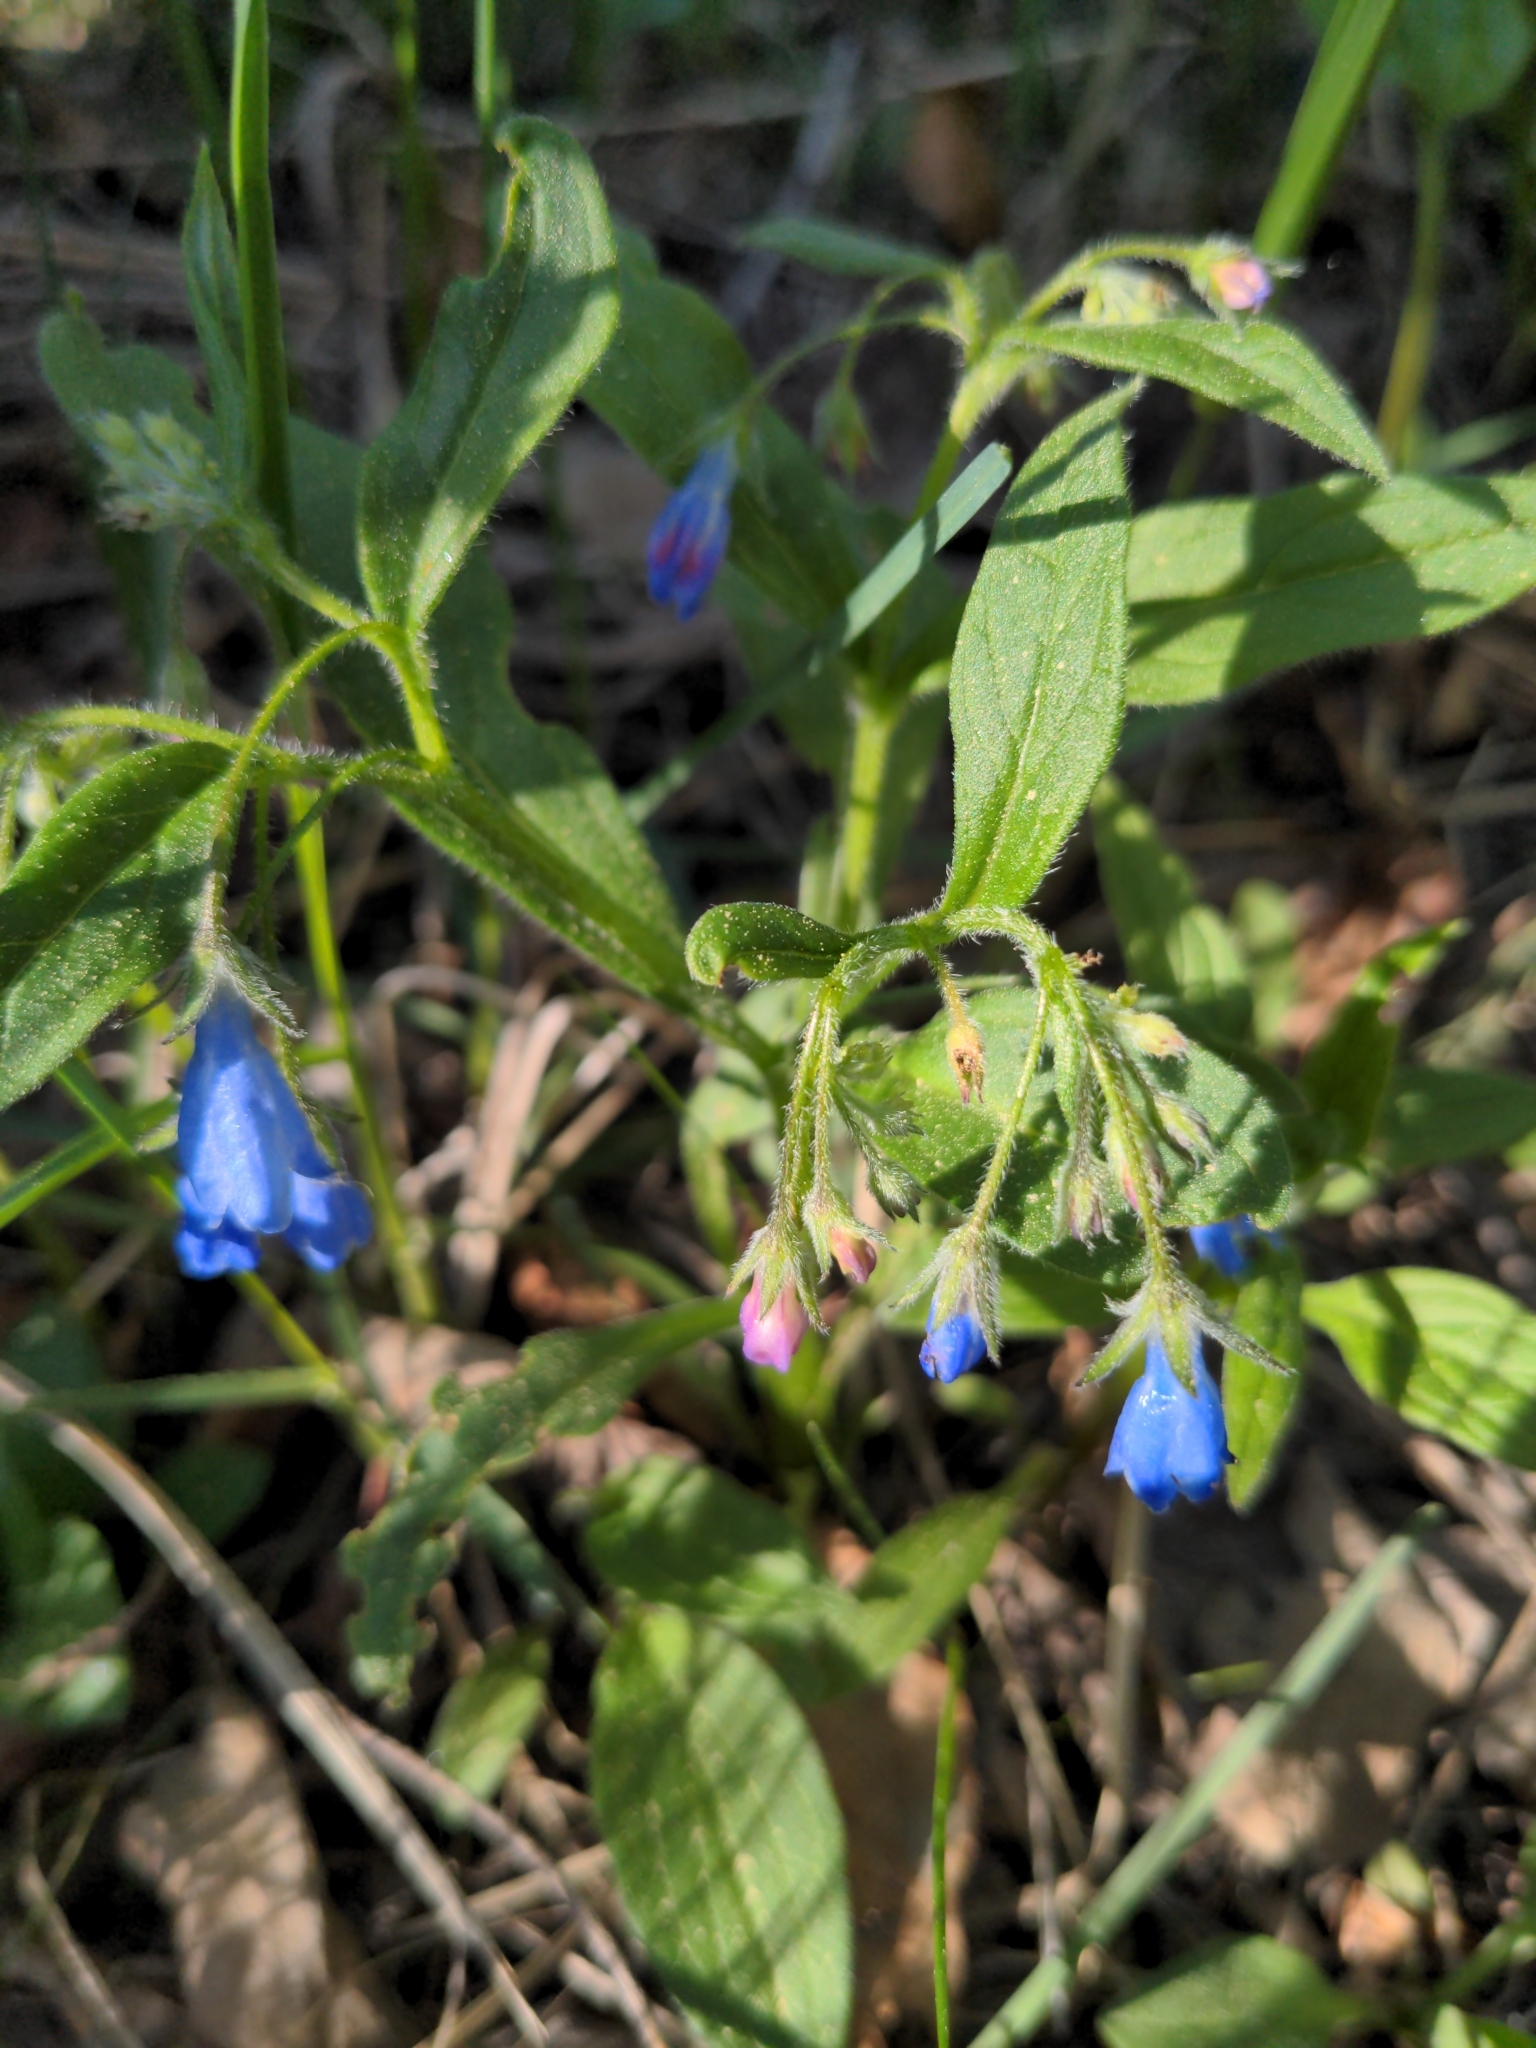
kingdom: Plantae
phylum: Tracheophyta
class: Magnoliopsida
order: Boraginales
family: Boraginaceae
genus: Mertensia
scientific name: Mertensia paniculata
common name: Panicled bluebells
